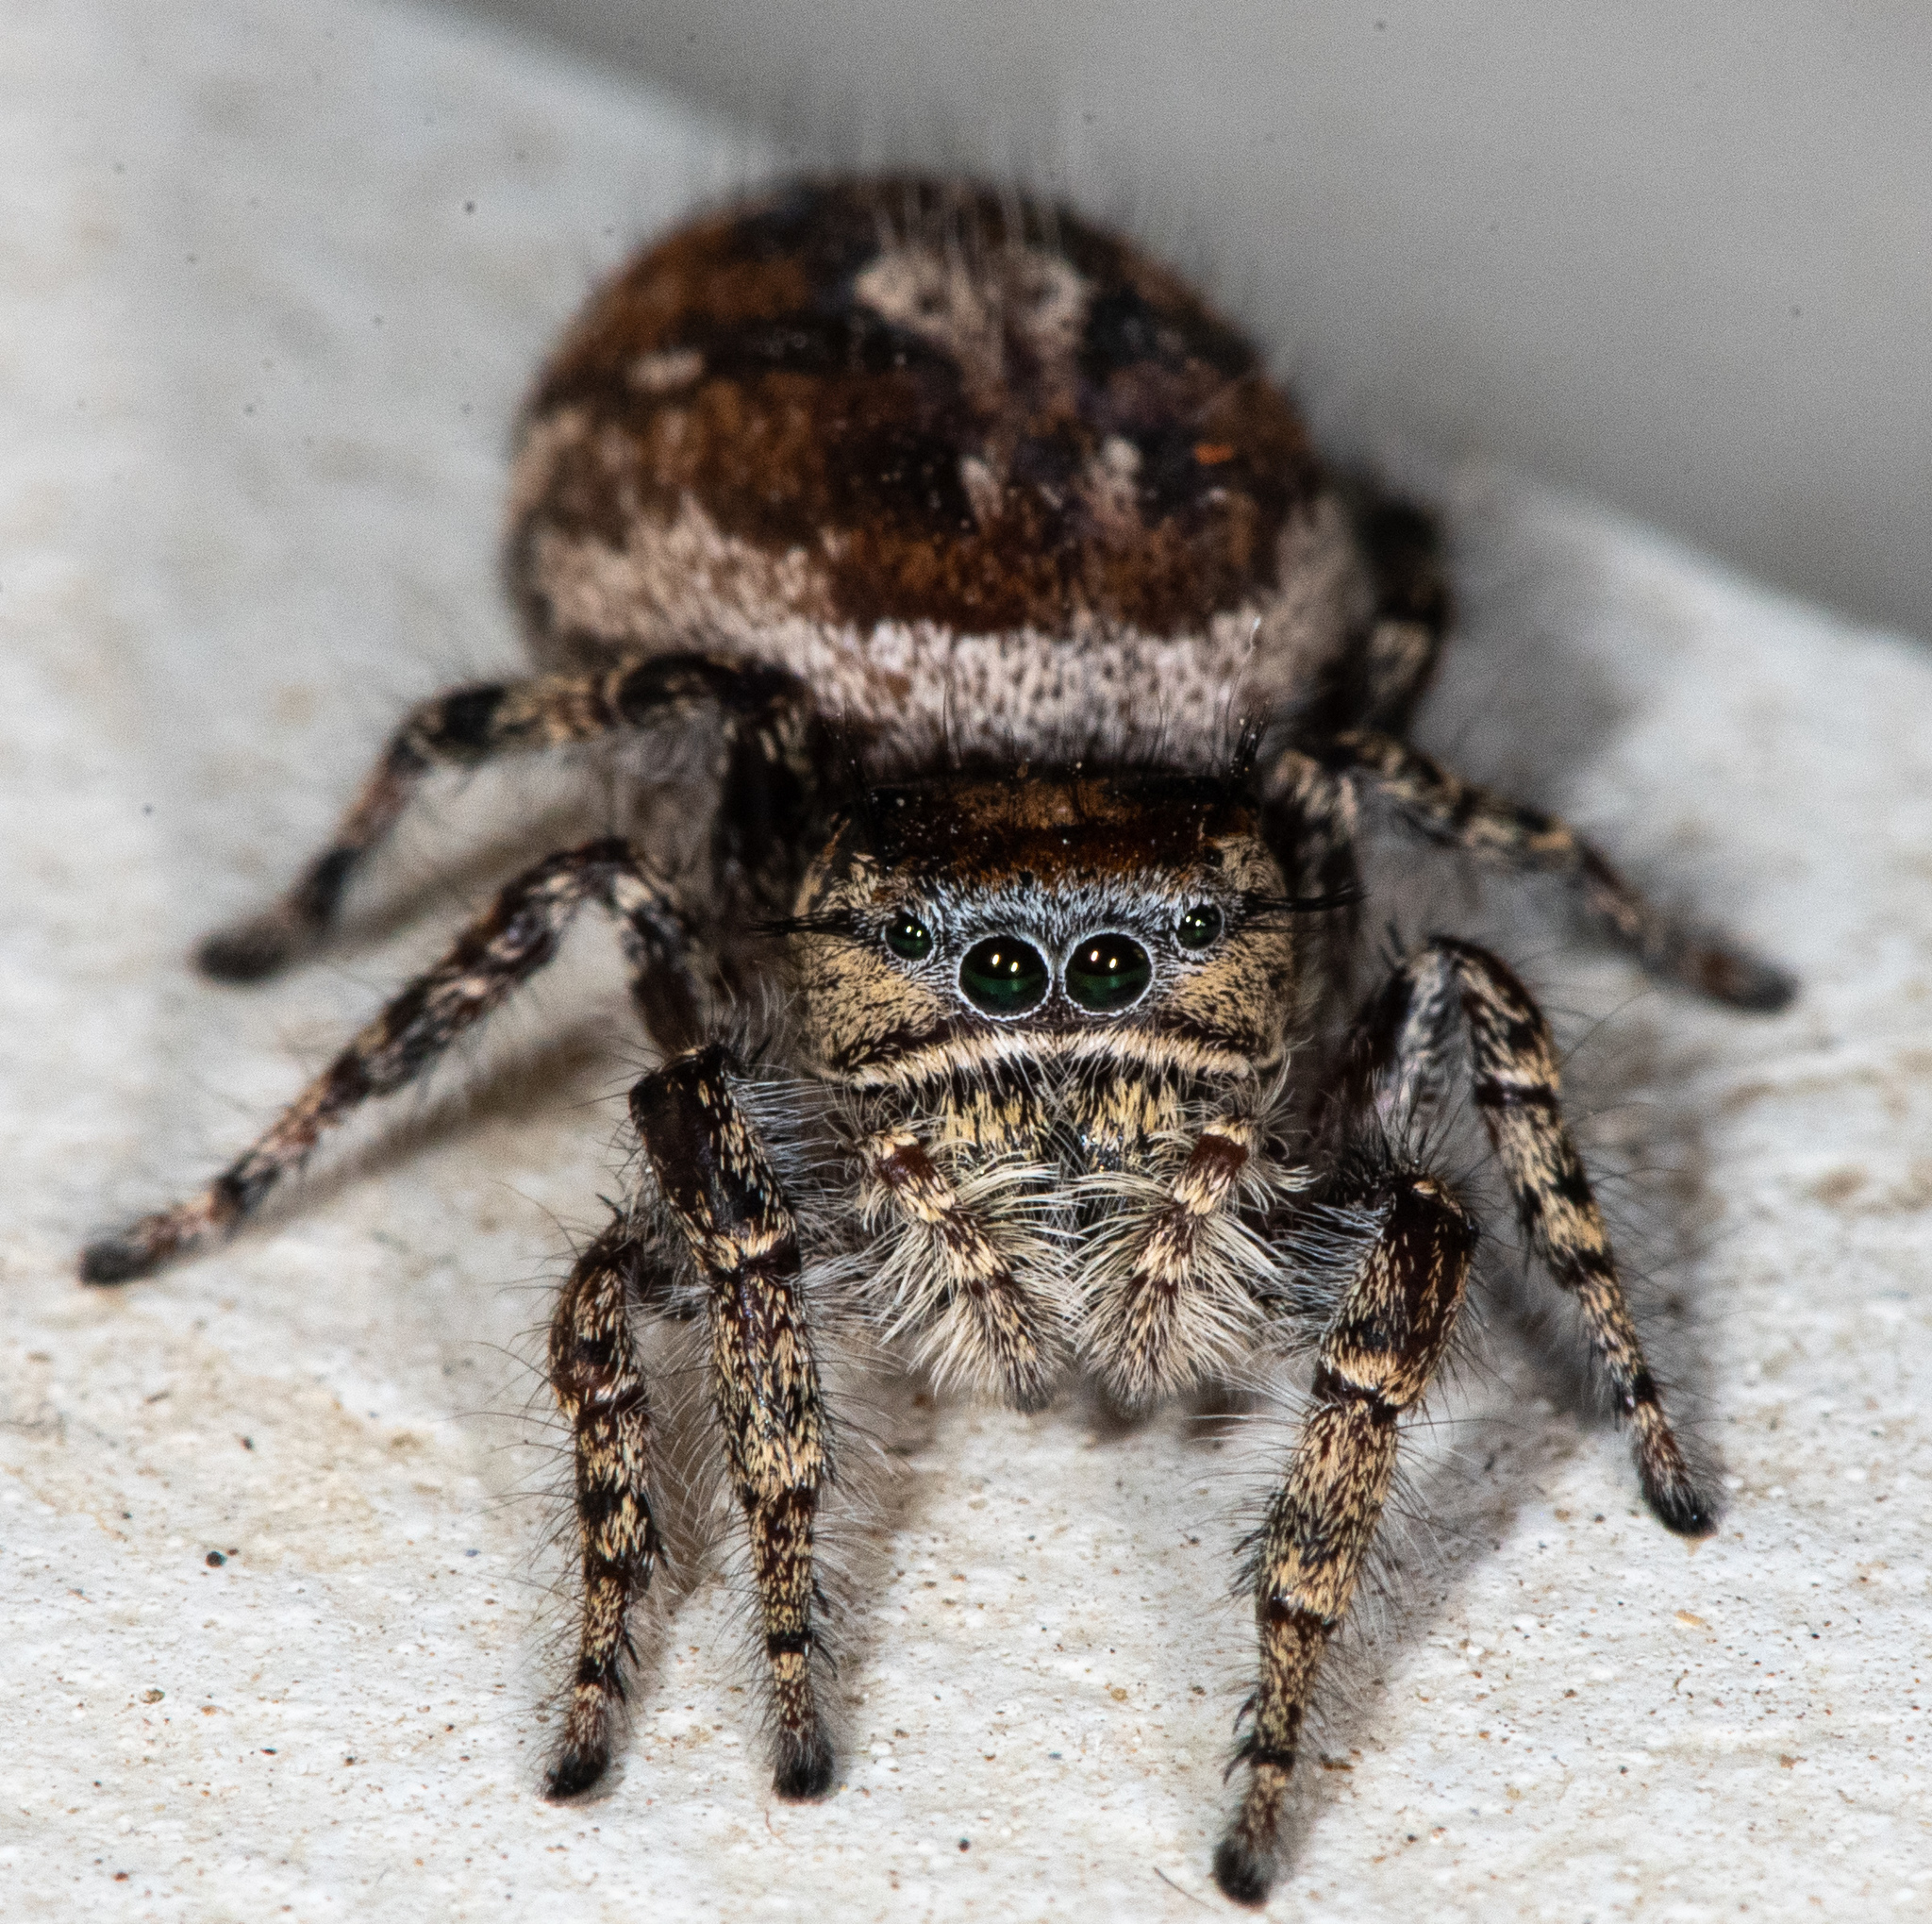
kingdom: Animalia
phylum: Arthropoda
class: Arachnida
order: Araneae
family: Salticidae
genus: Phidippus
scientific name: Phidippus comatus
